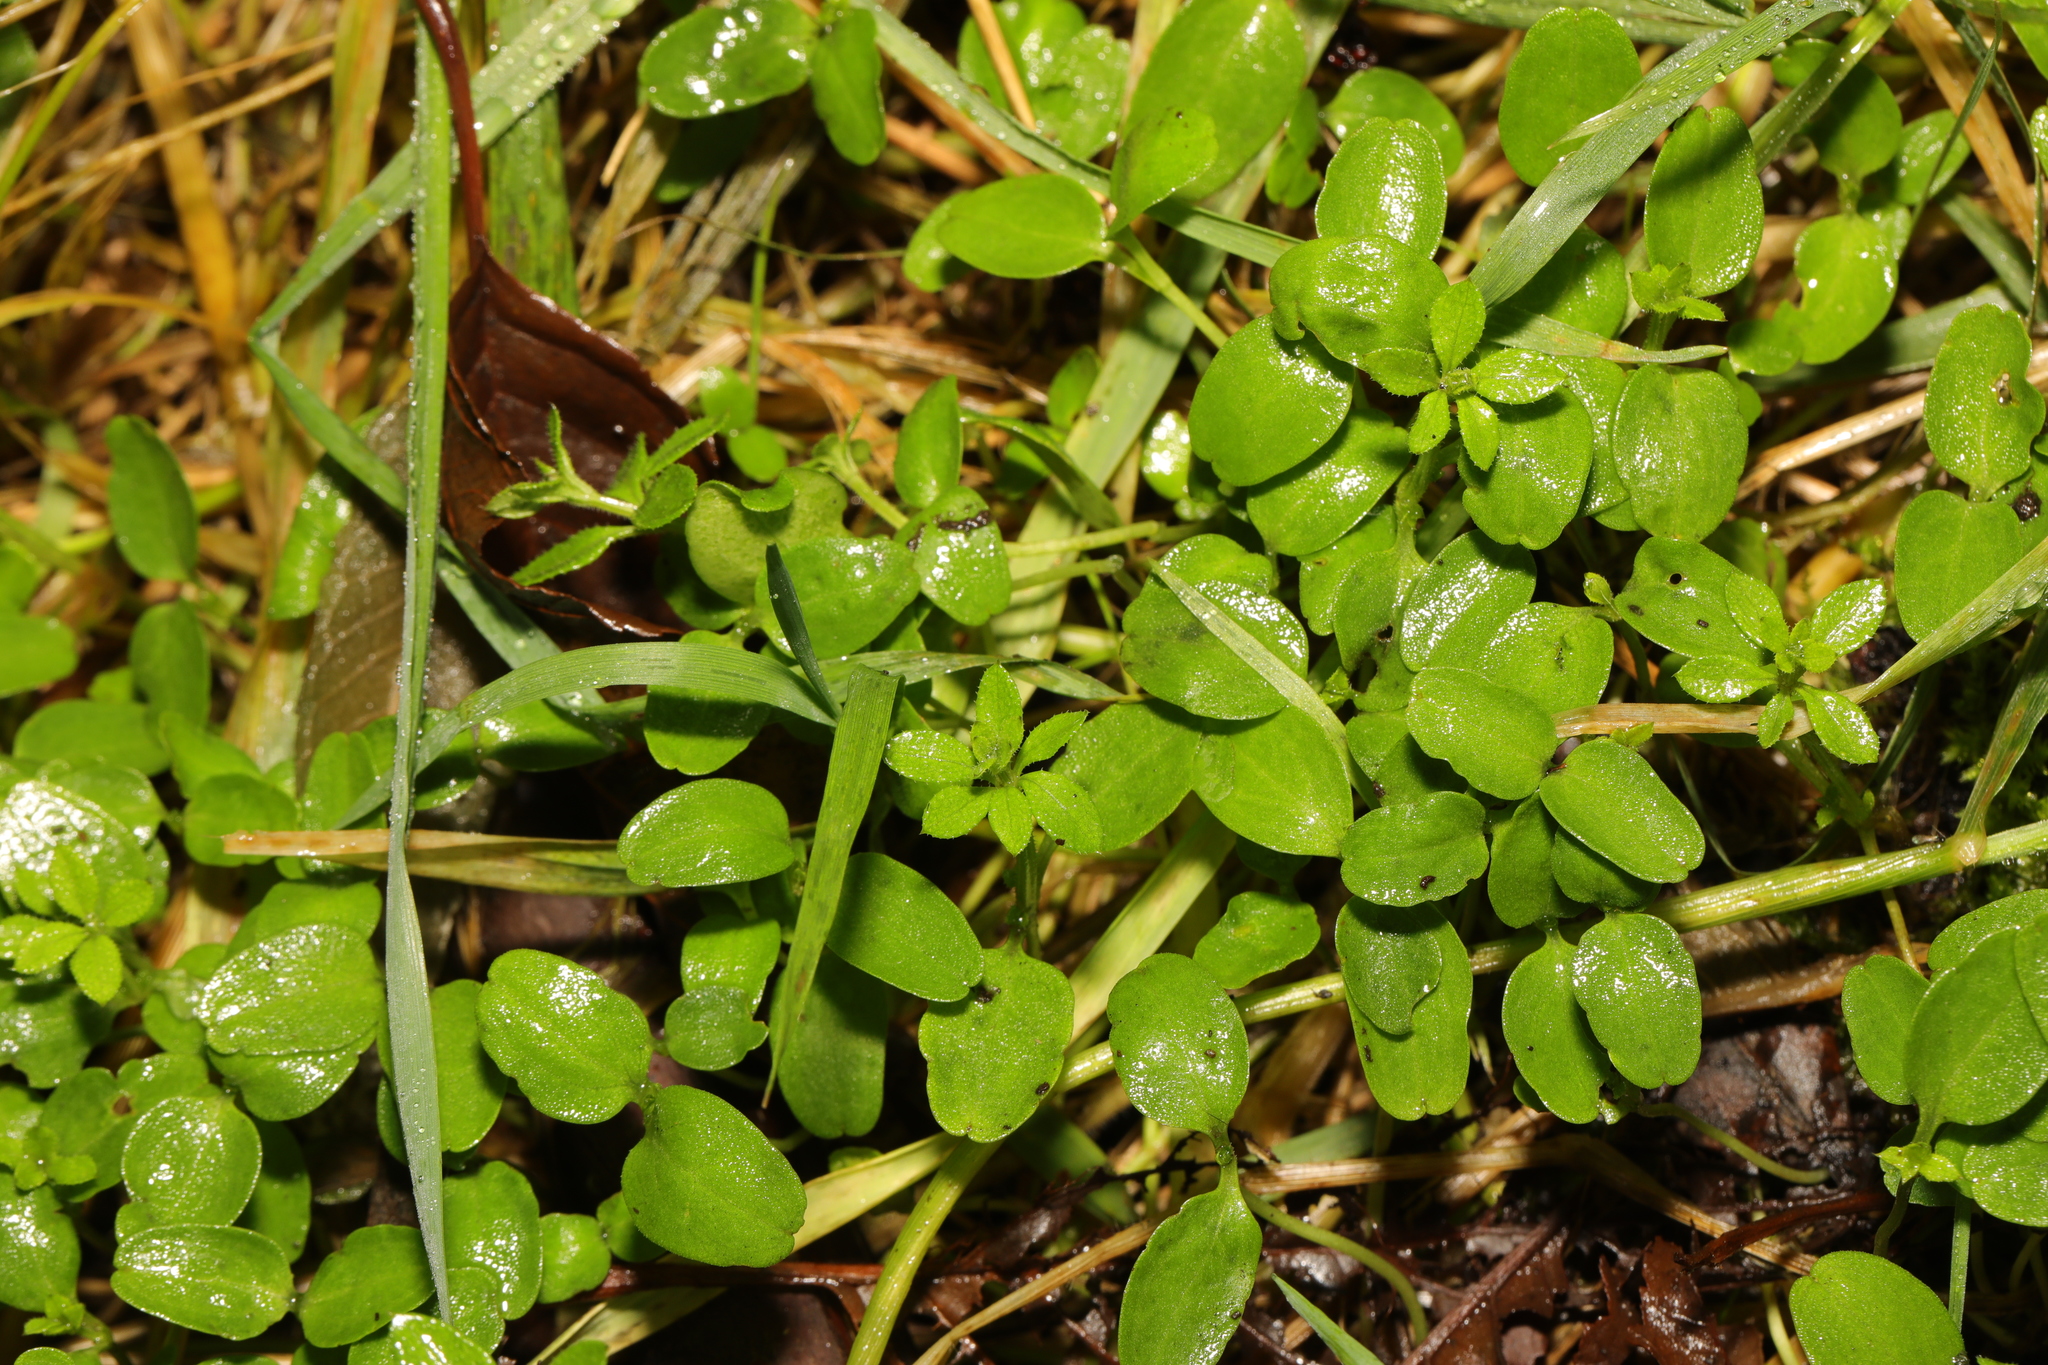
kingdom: Plantae
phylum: Tracheophyta
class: Magnoliopsida
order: Gentianales
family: Rubiaceae
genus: Galium
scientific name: Galium aparine
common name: Cleavers
